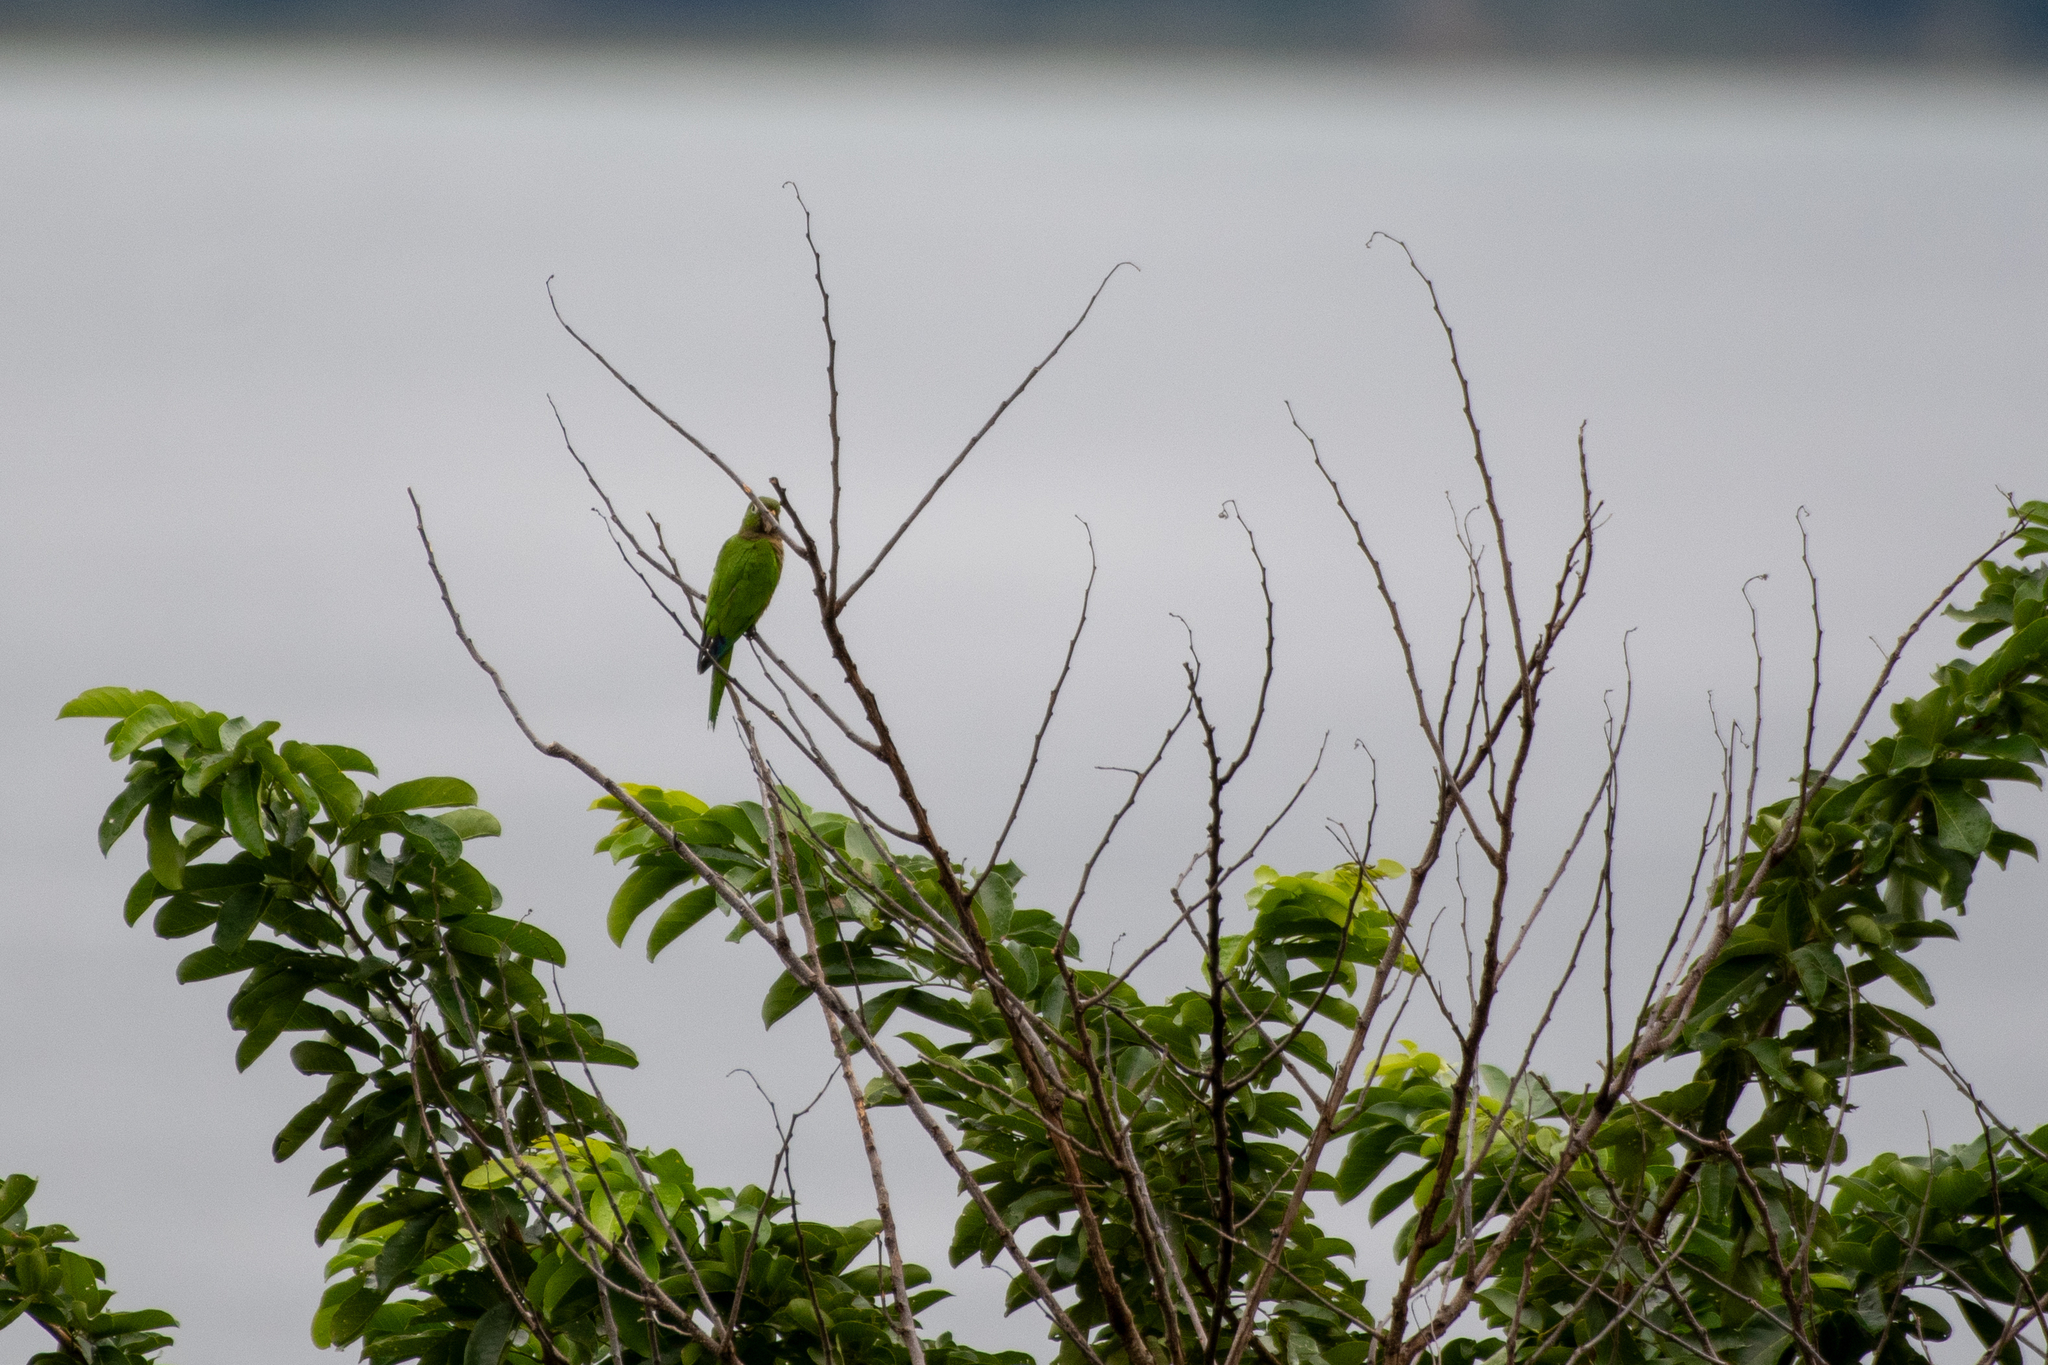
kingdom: Animalia
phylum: Chordata
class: Aves
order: Psittaciformes
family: Psittacidae
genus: Aratinga
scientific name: Aratinga nana
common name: Olive-throated parakeet
